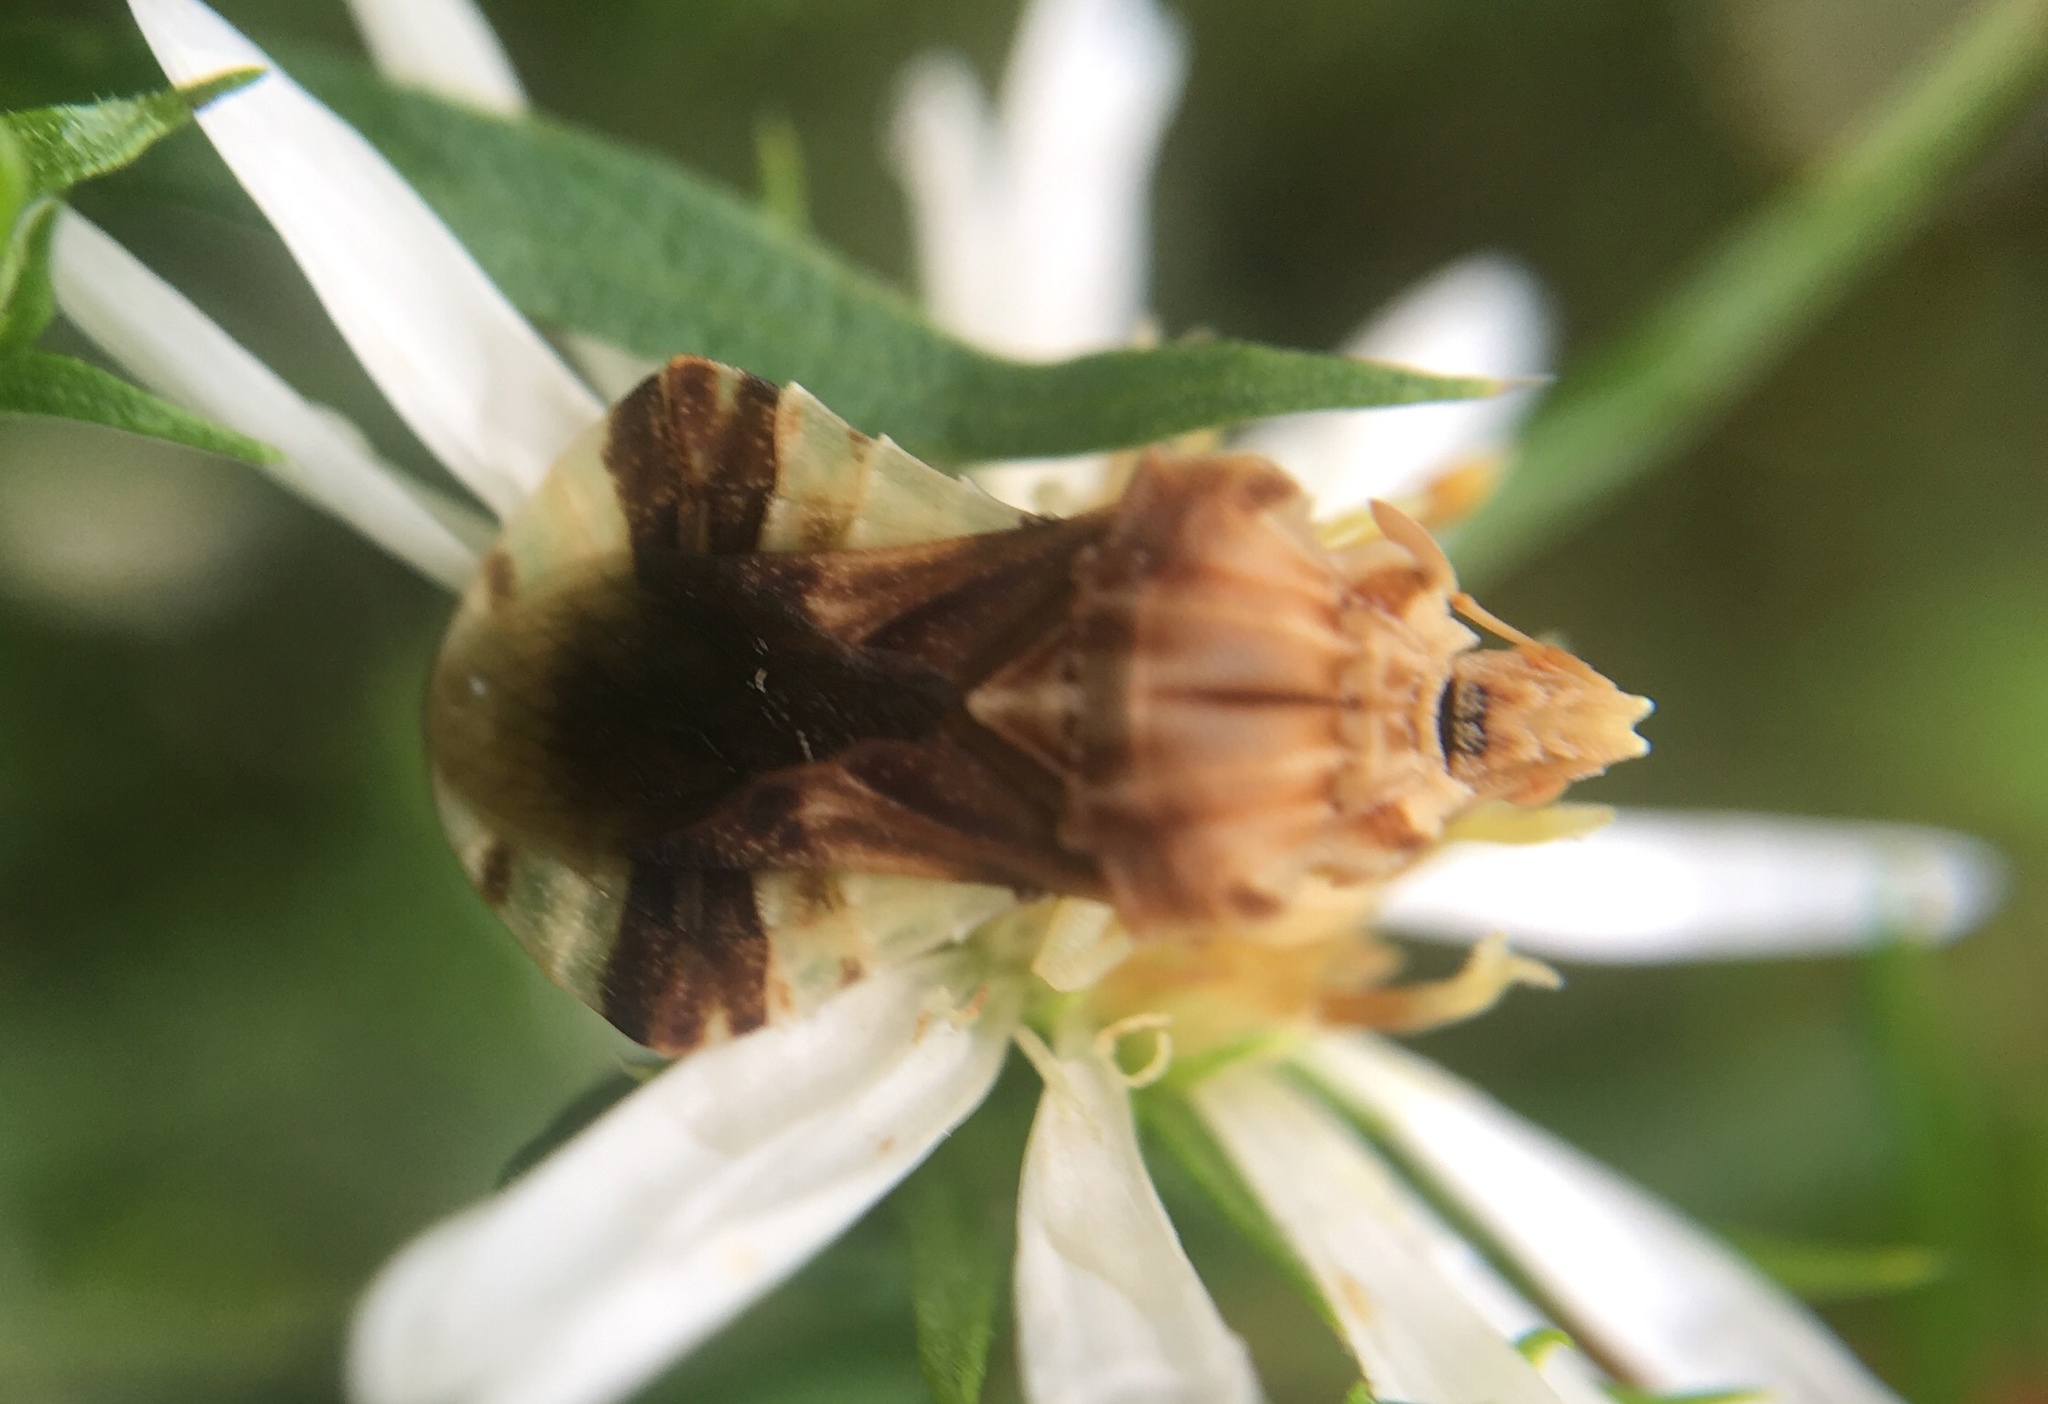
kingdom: Animalia
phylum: Arthropoda
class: Insecta
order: Hemiptera
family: Reduviidae
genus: Phymata
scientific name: Phymata fasciata
